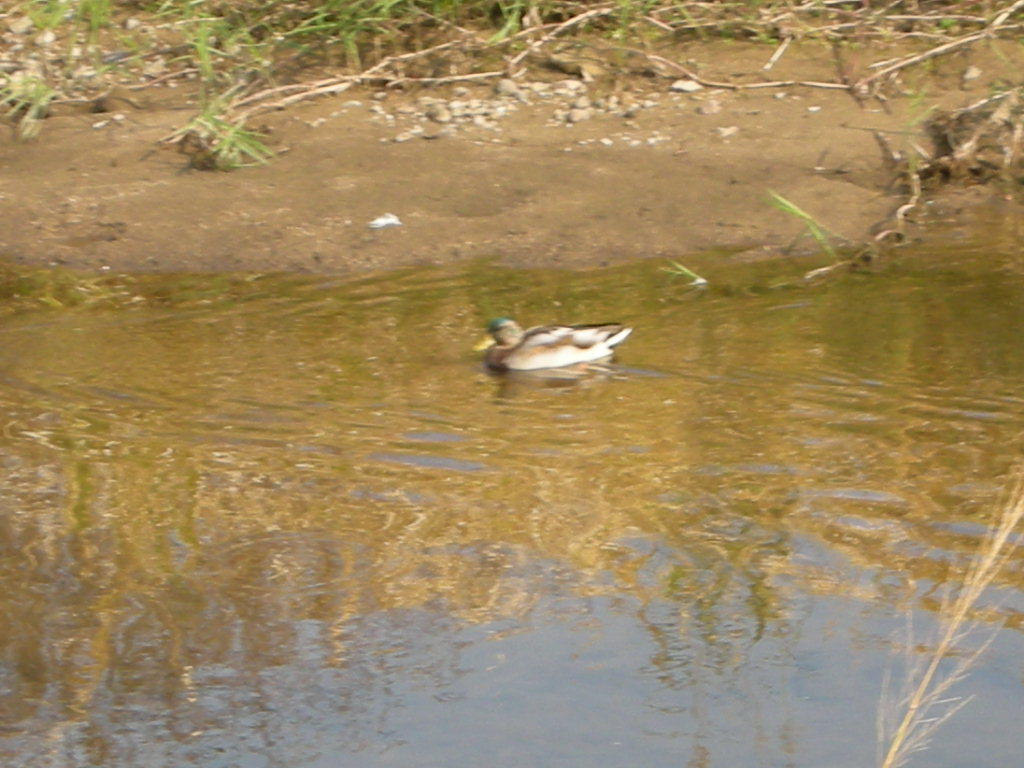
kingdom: Animalia
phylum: Chordata
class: Aves
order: Anseriformes
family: Anatidae
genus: Anas
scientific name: Anas platyrhynchos
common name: Mallard
